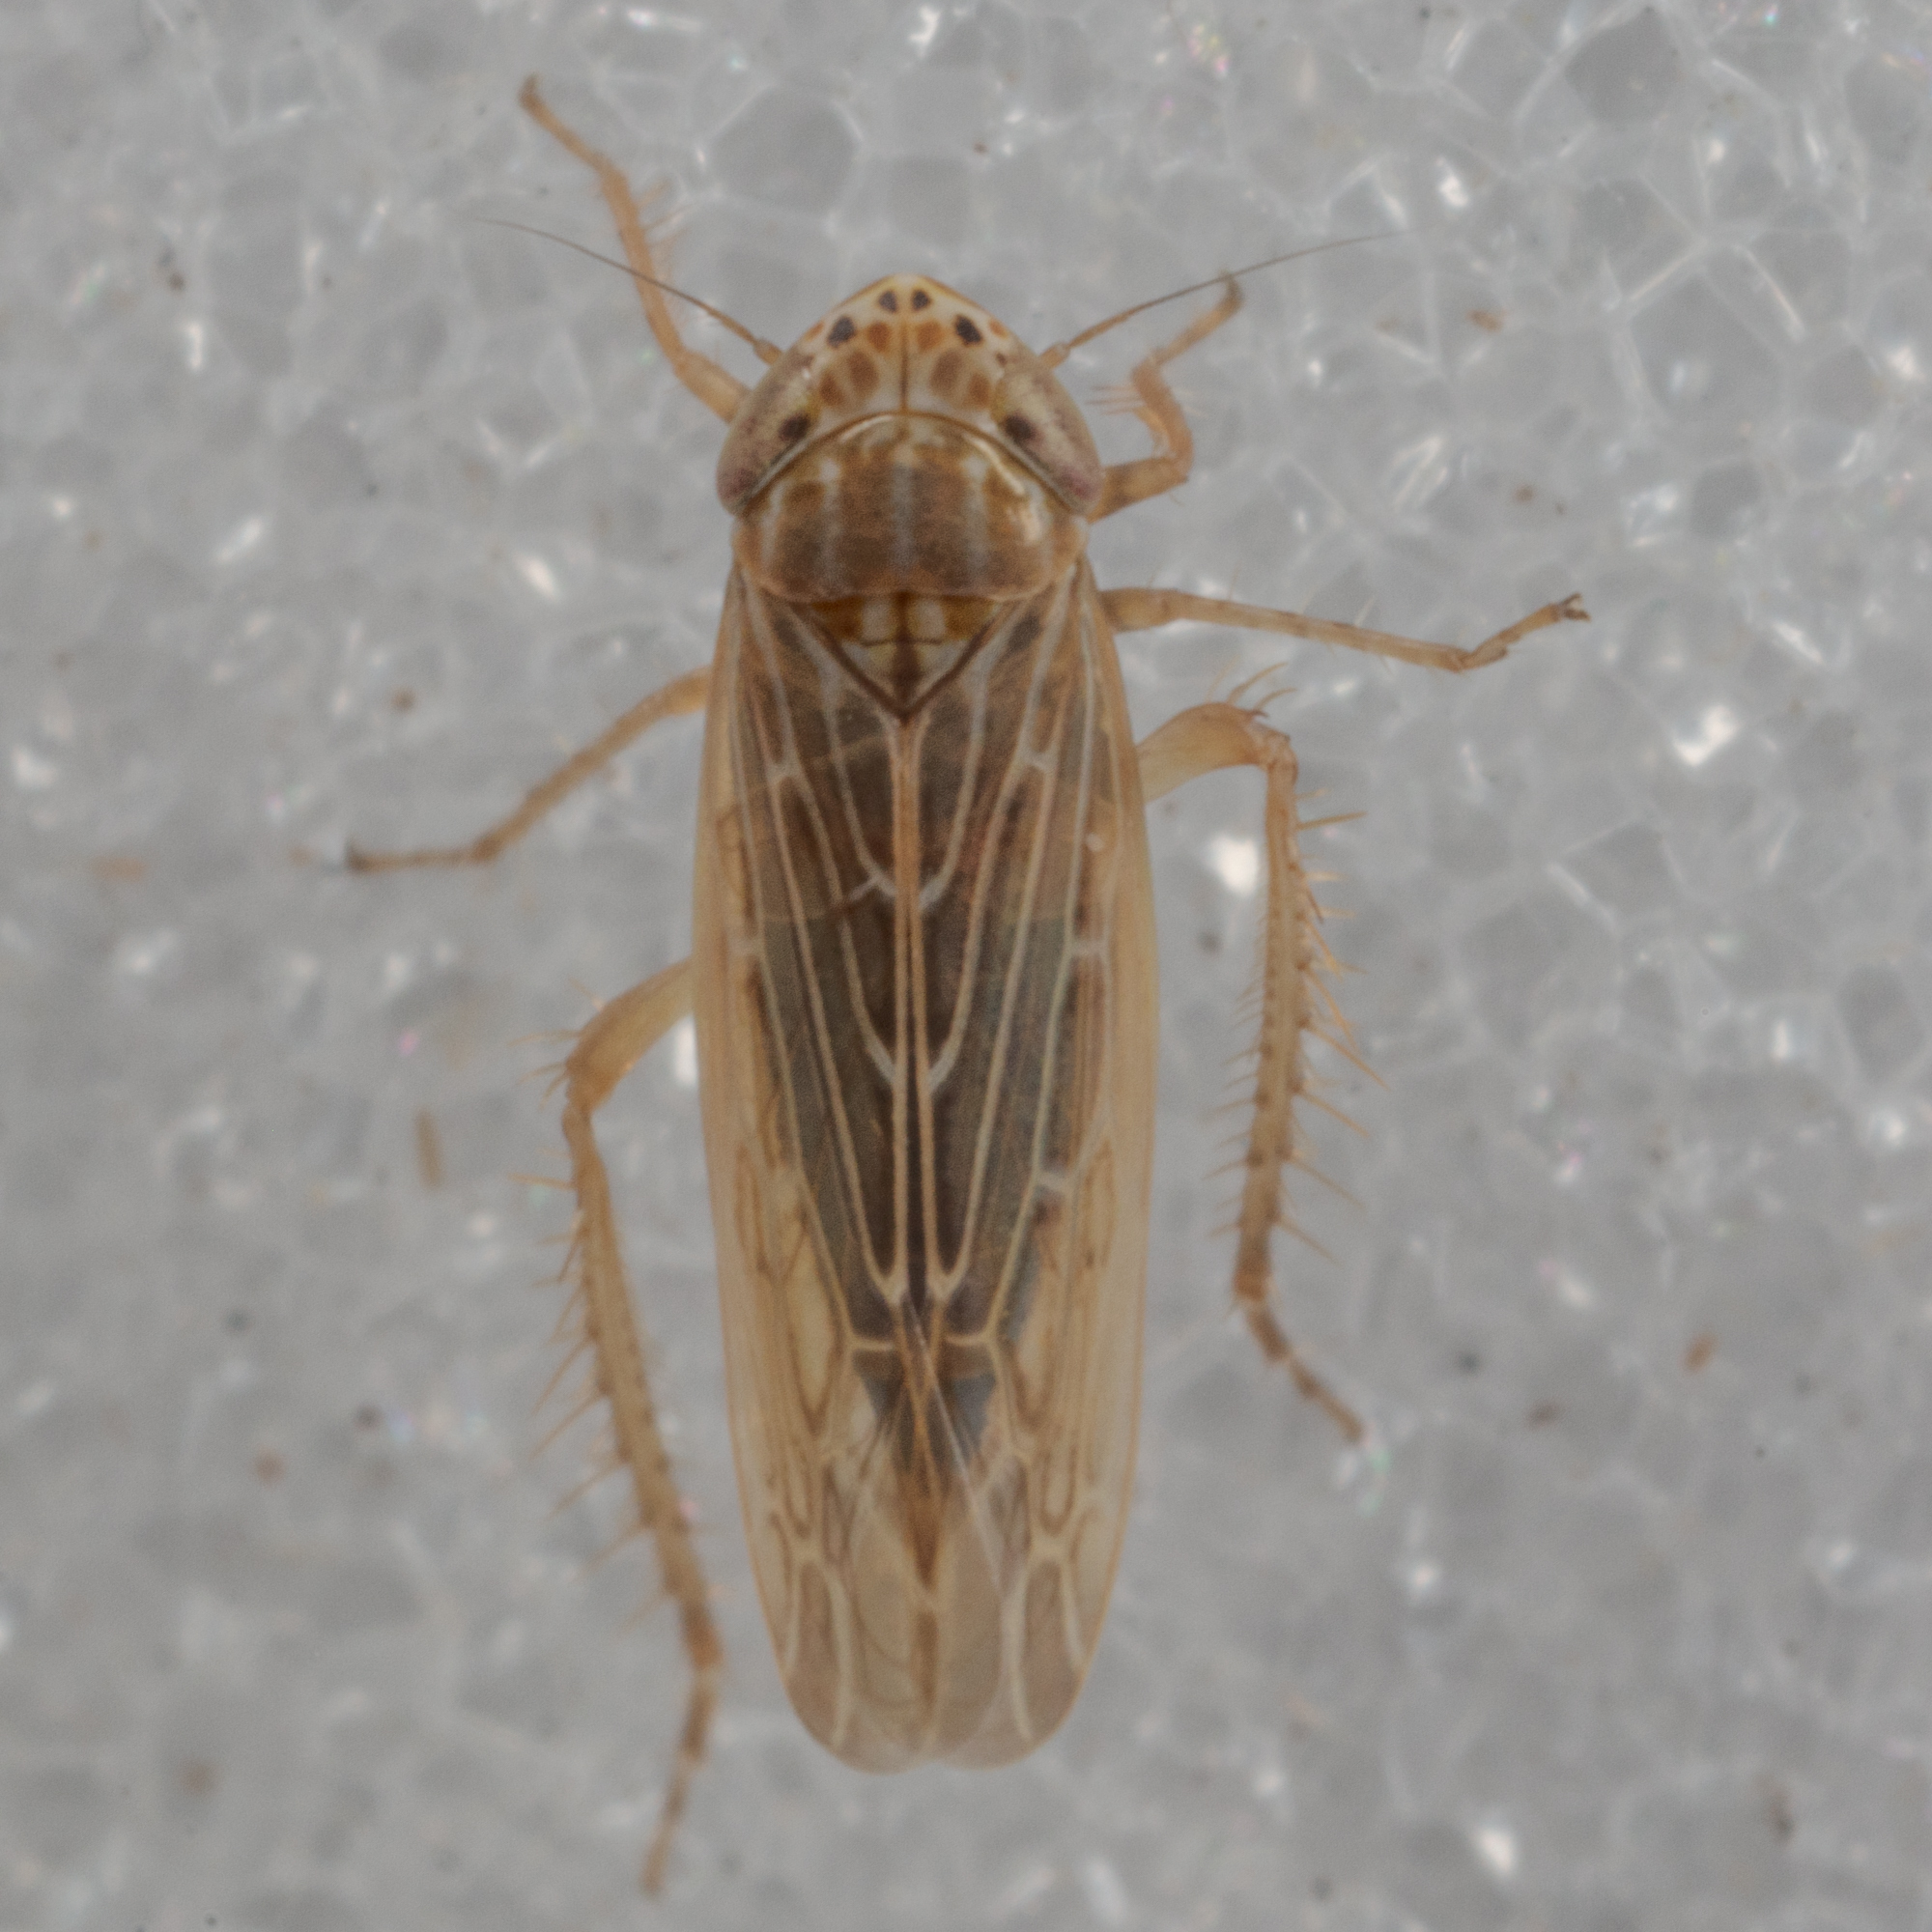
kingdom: Animalia
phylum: Arthropoda
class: Insecta
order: Hemiptera
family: Cicadellidae
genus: Graminella
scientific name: Graminella sonora
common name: Lesser lawn leafhopper
